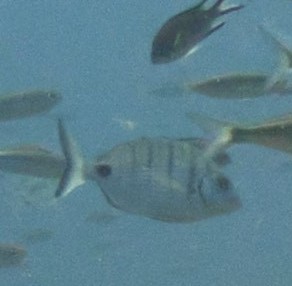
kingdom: Animalia
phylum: Chordata
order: Perciformes
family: Sparidae
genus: Diplodus
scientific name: Diplodus cadenati
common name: Moroccan white seabream
